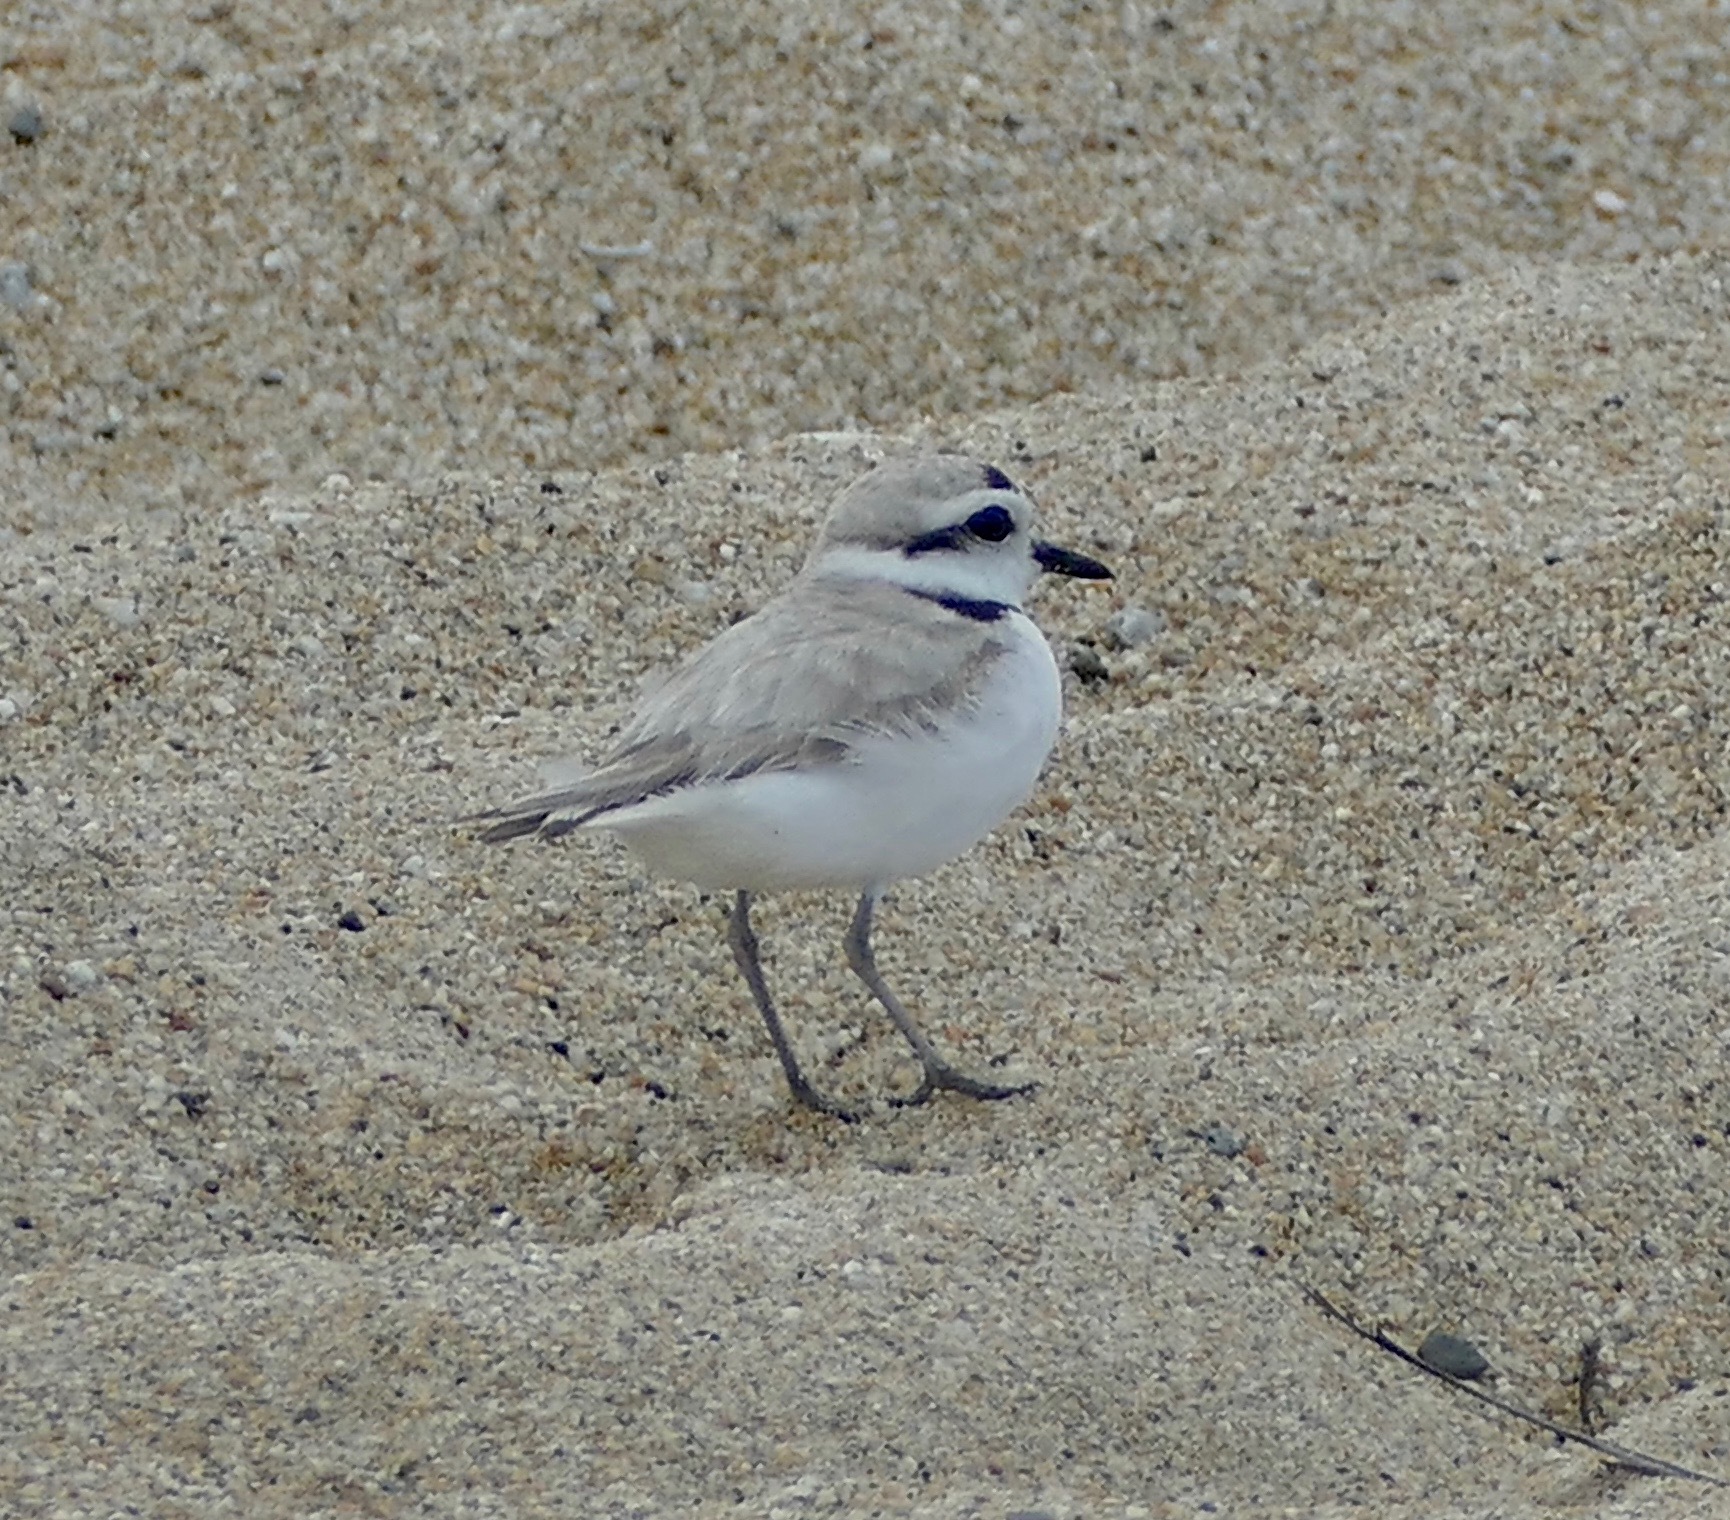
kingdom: Animalia
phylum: Chordata
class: Aves
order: Charadriiformes
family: Charadriidae
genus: Anarhynchus
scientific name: Anarhynchus
